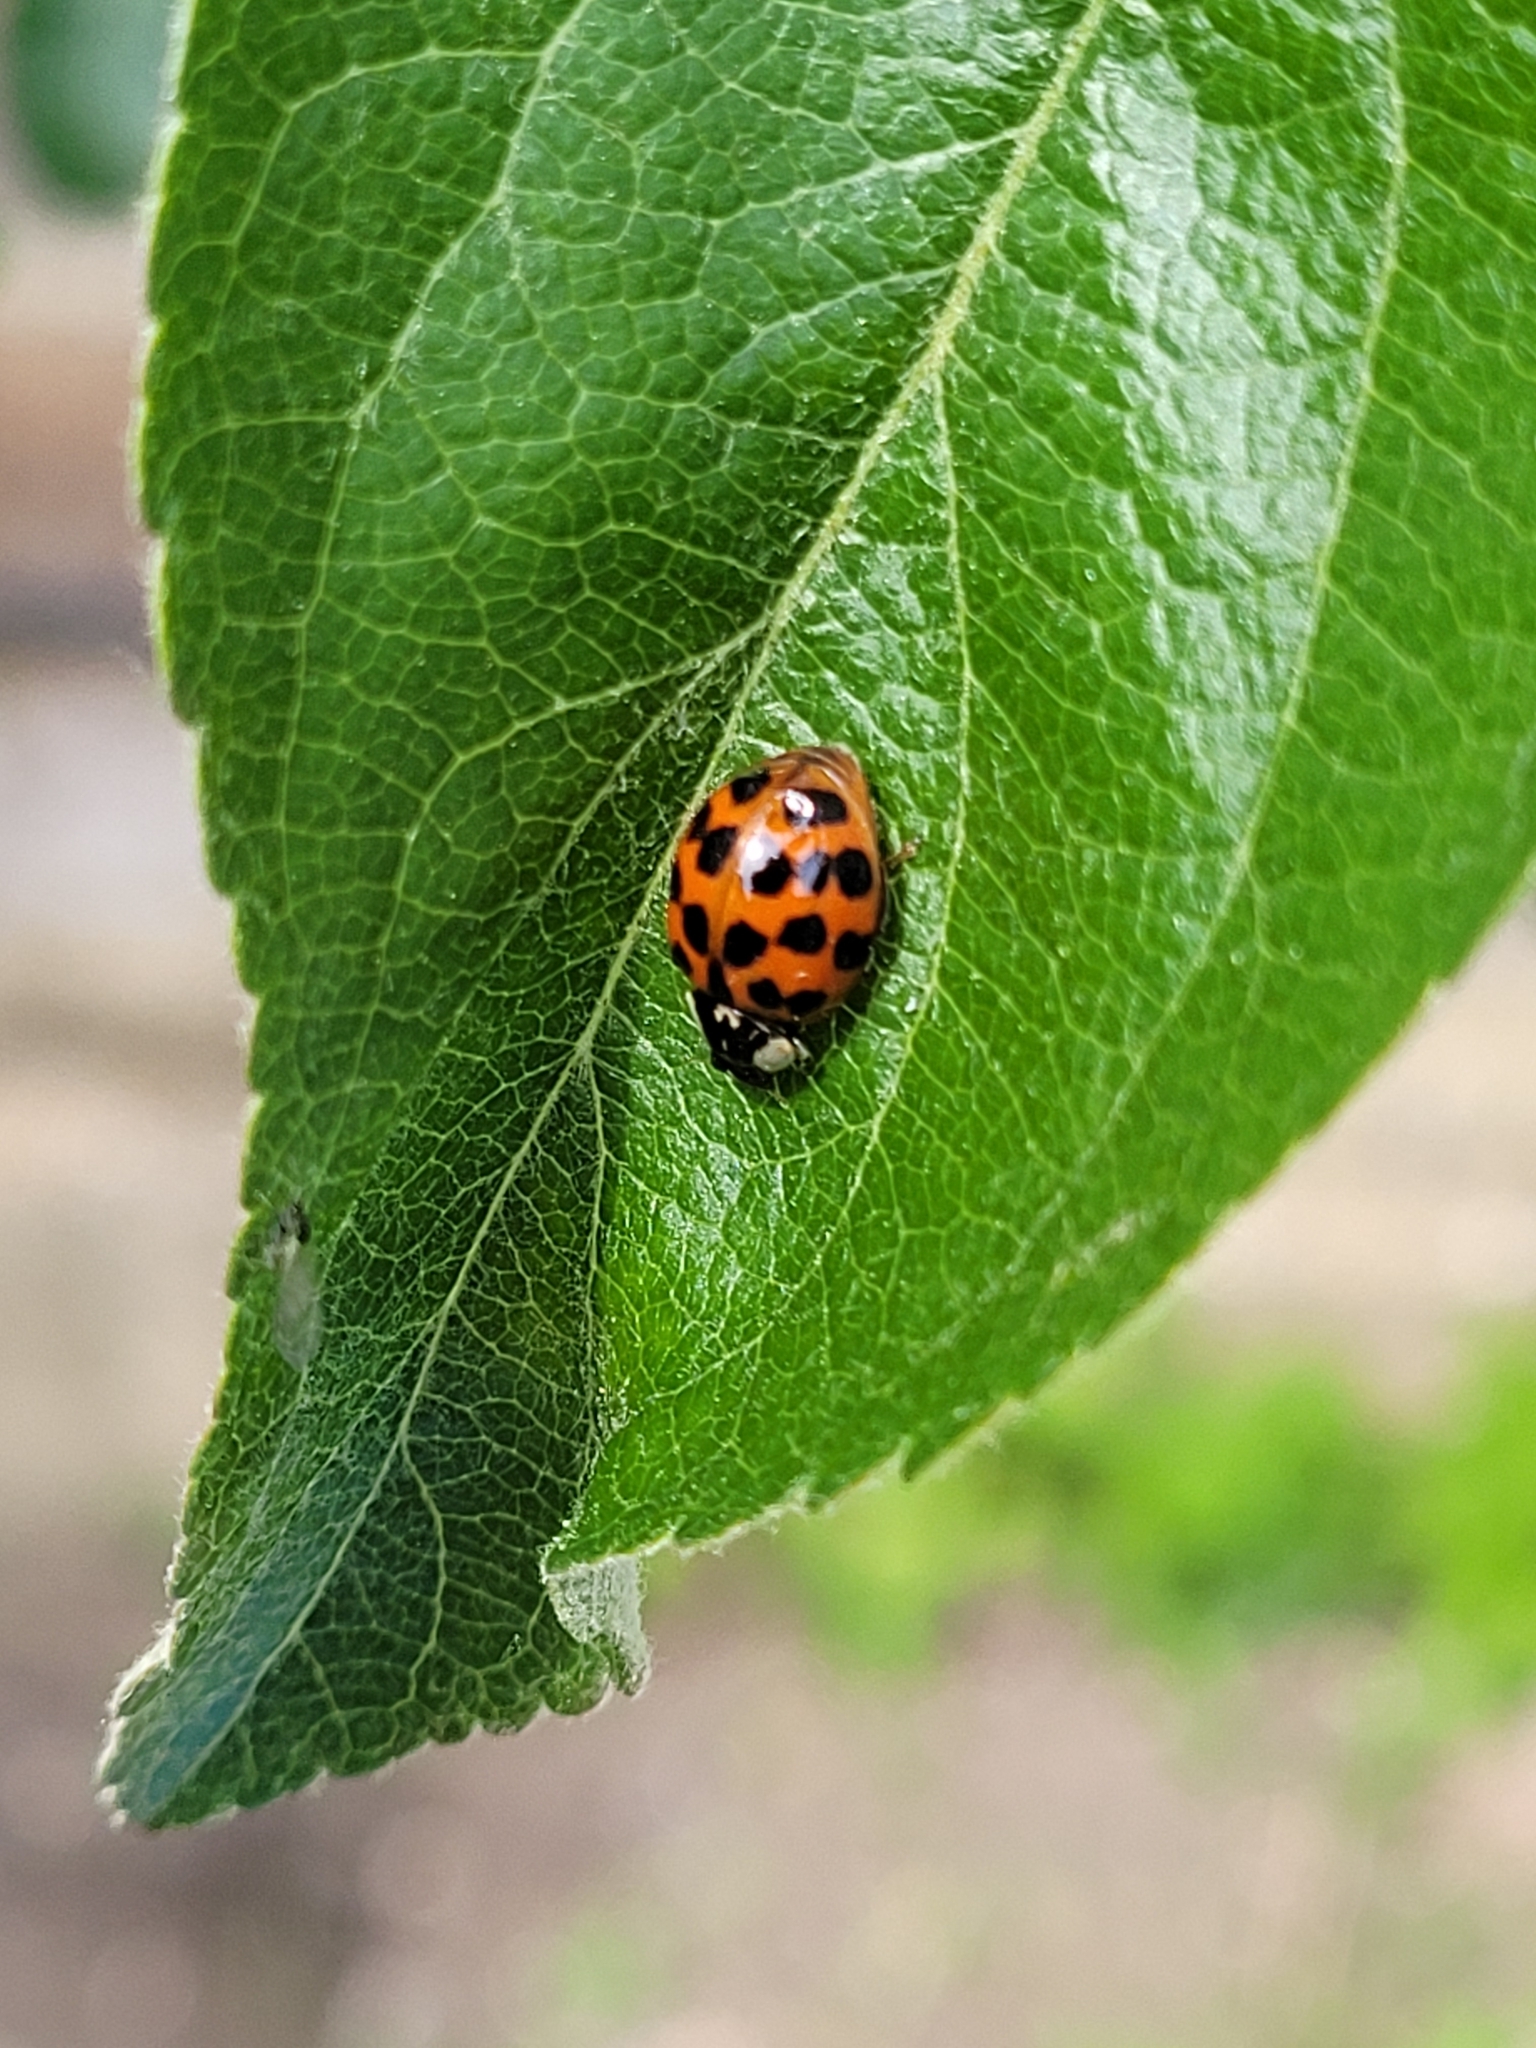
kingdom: Animalia
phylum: Arthropoda
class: Insecta
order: Coleoptera
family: Coccinellidae
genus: Harmonia
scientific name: Harmonia axyridis
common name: Harlequin ladybird
